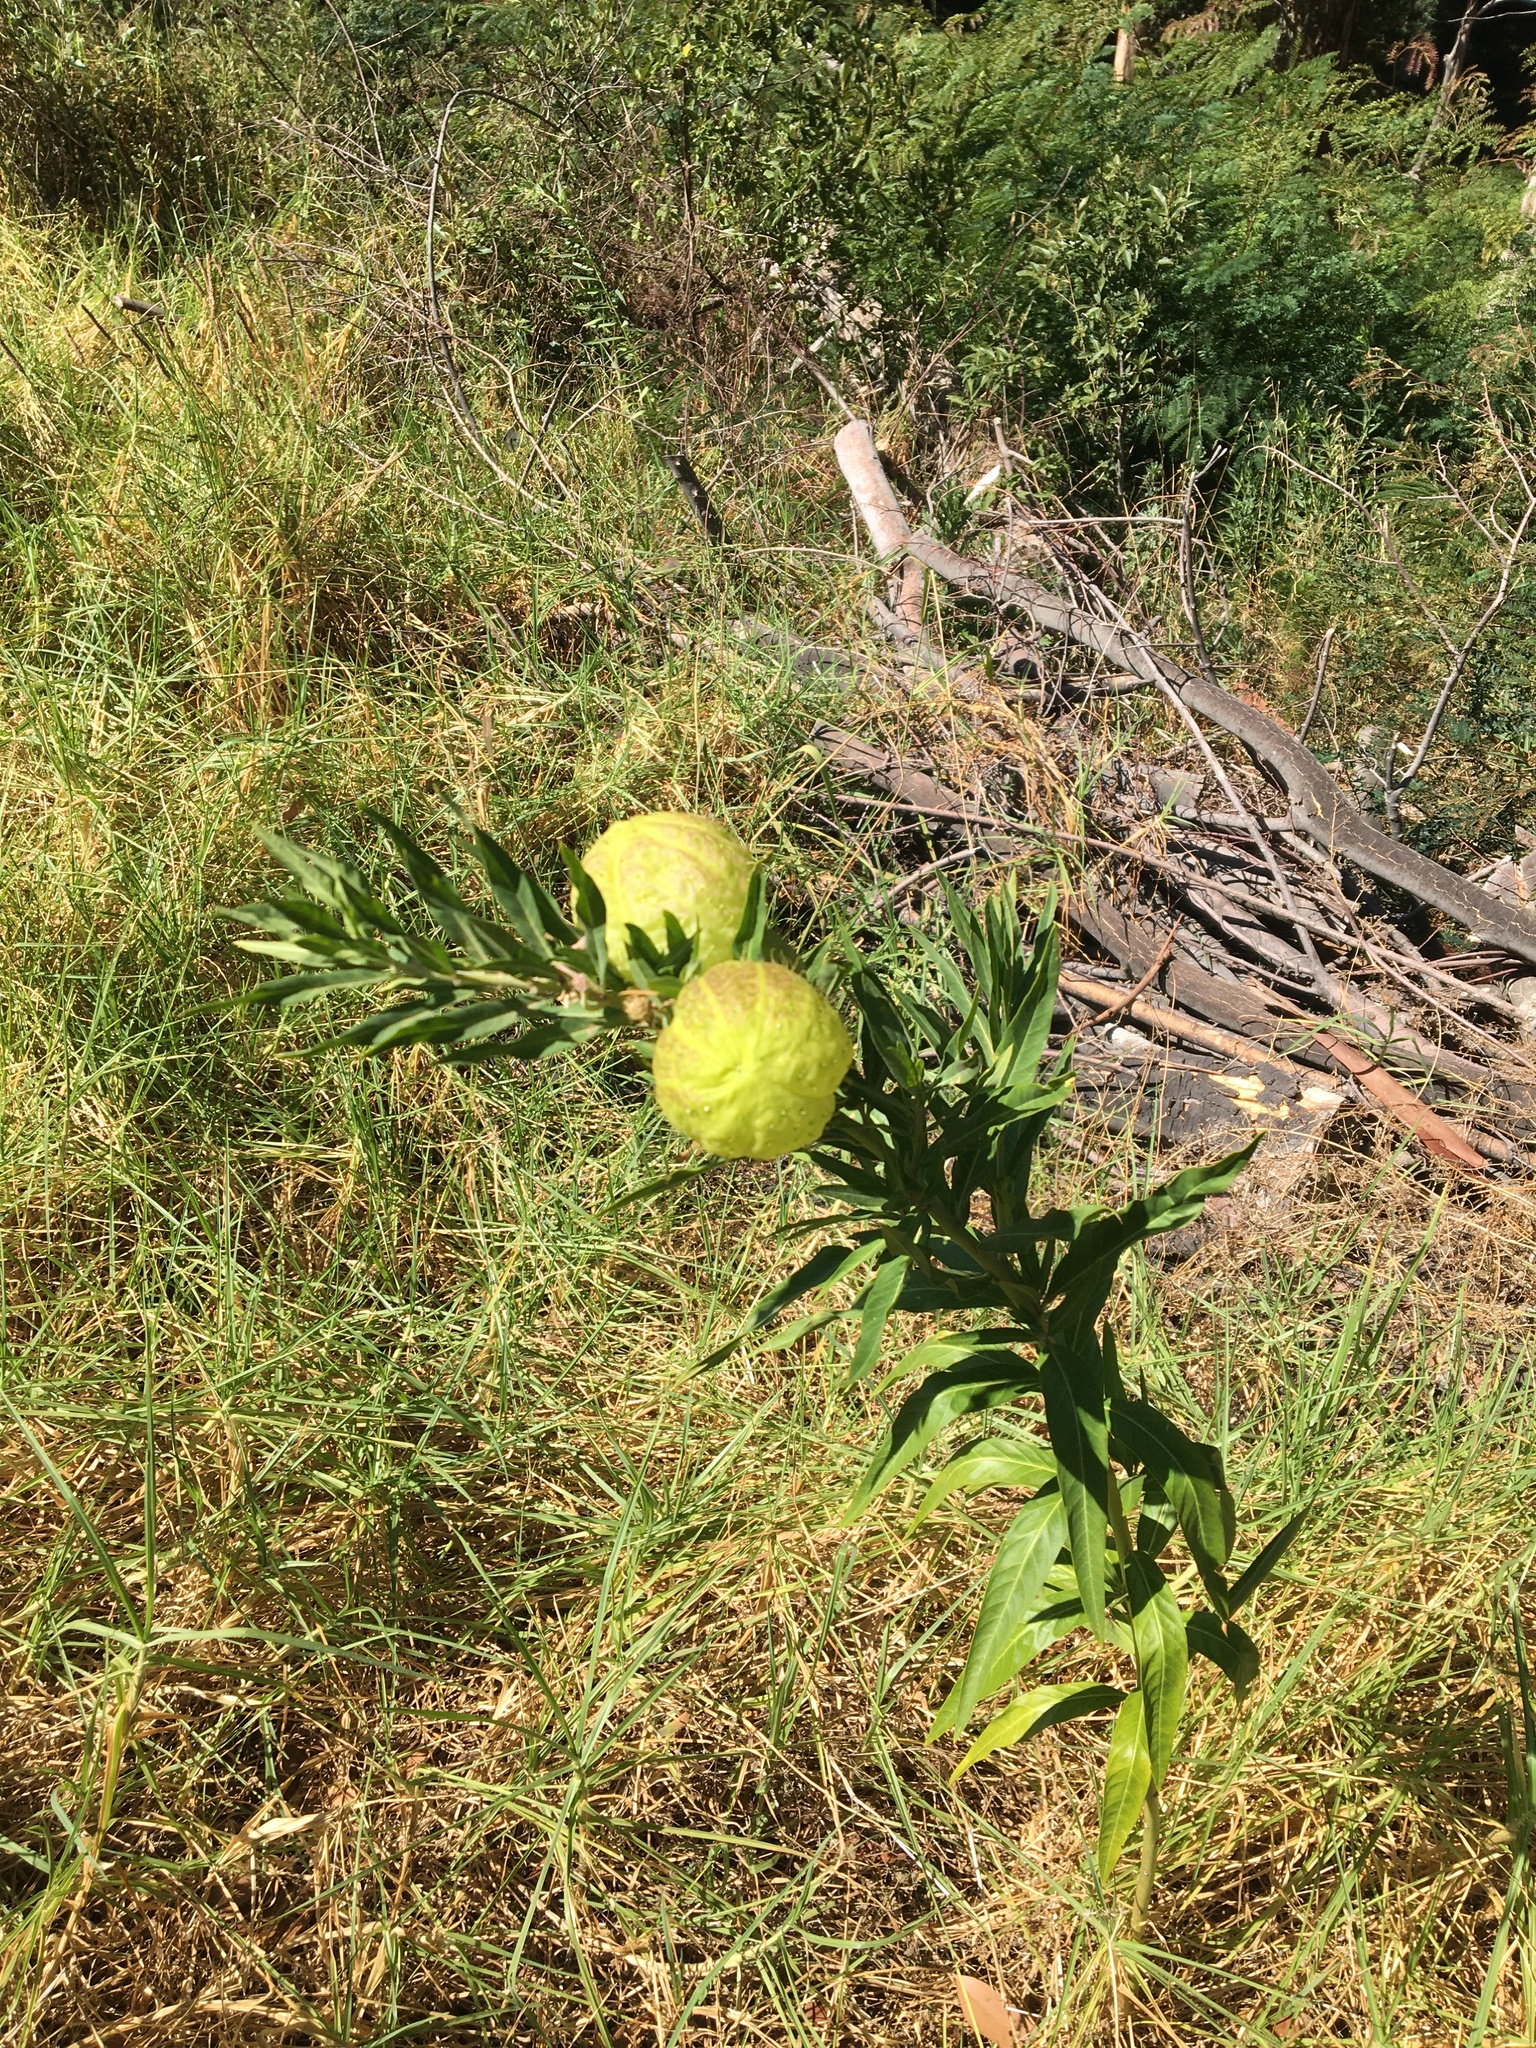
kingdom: Plantae
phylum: Tracheophyta
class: Magnoliopsida
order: Gentianales
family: Apocynaceae
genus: Gomphocarpus
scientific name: Gomphocarpus physocarpus
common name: Balloon cotton bush
